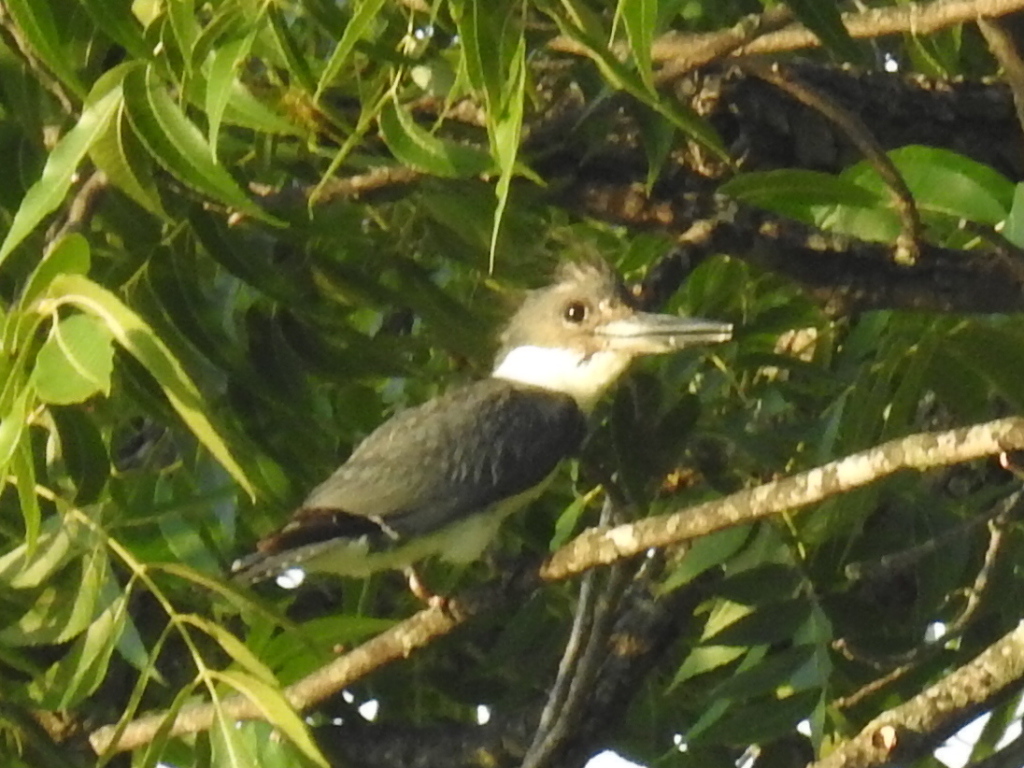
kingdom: Animalia
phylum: Chordata
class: Aves
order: Coraciiformes
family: Alcedinidae
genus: Megaceryle
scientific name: Megaceryle alcyon
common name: Belted kingfisher
